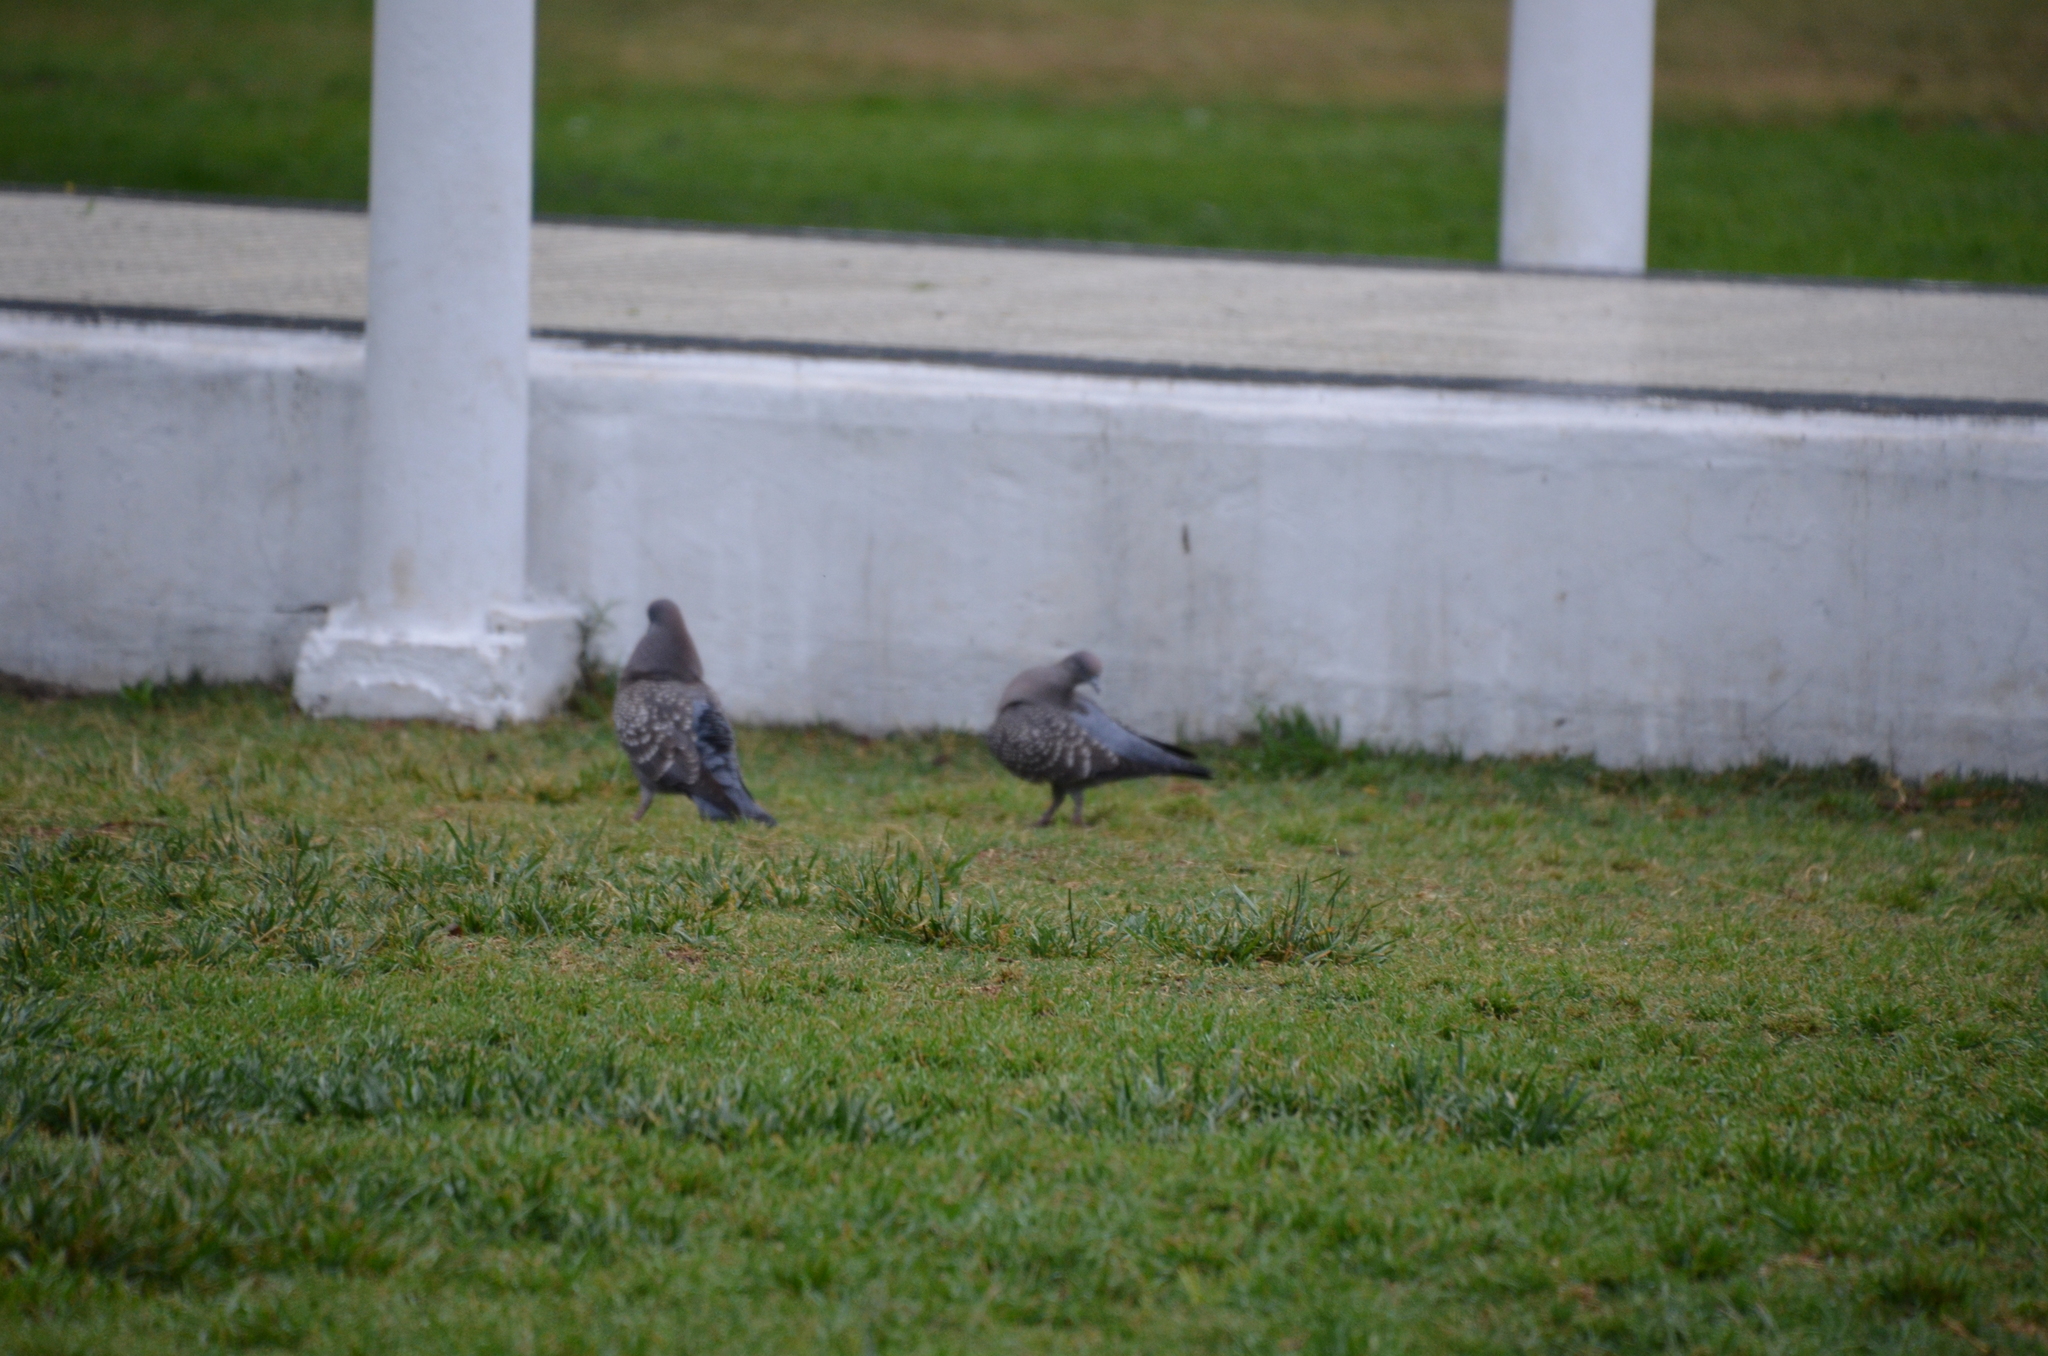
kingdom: Animalia
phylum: Chordata
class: Aves
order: Columbiformes
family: Columbidae
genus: Patagioenas
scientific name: Patagioenas maculosa
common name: Spot-winged pigeon
